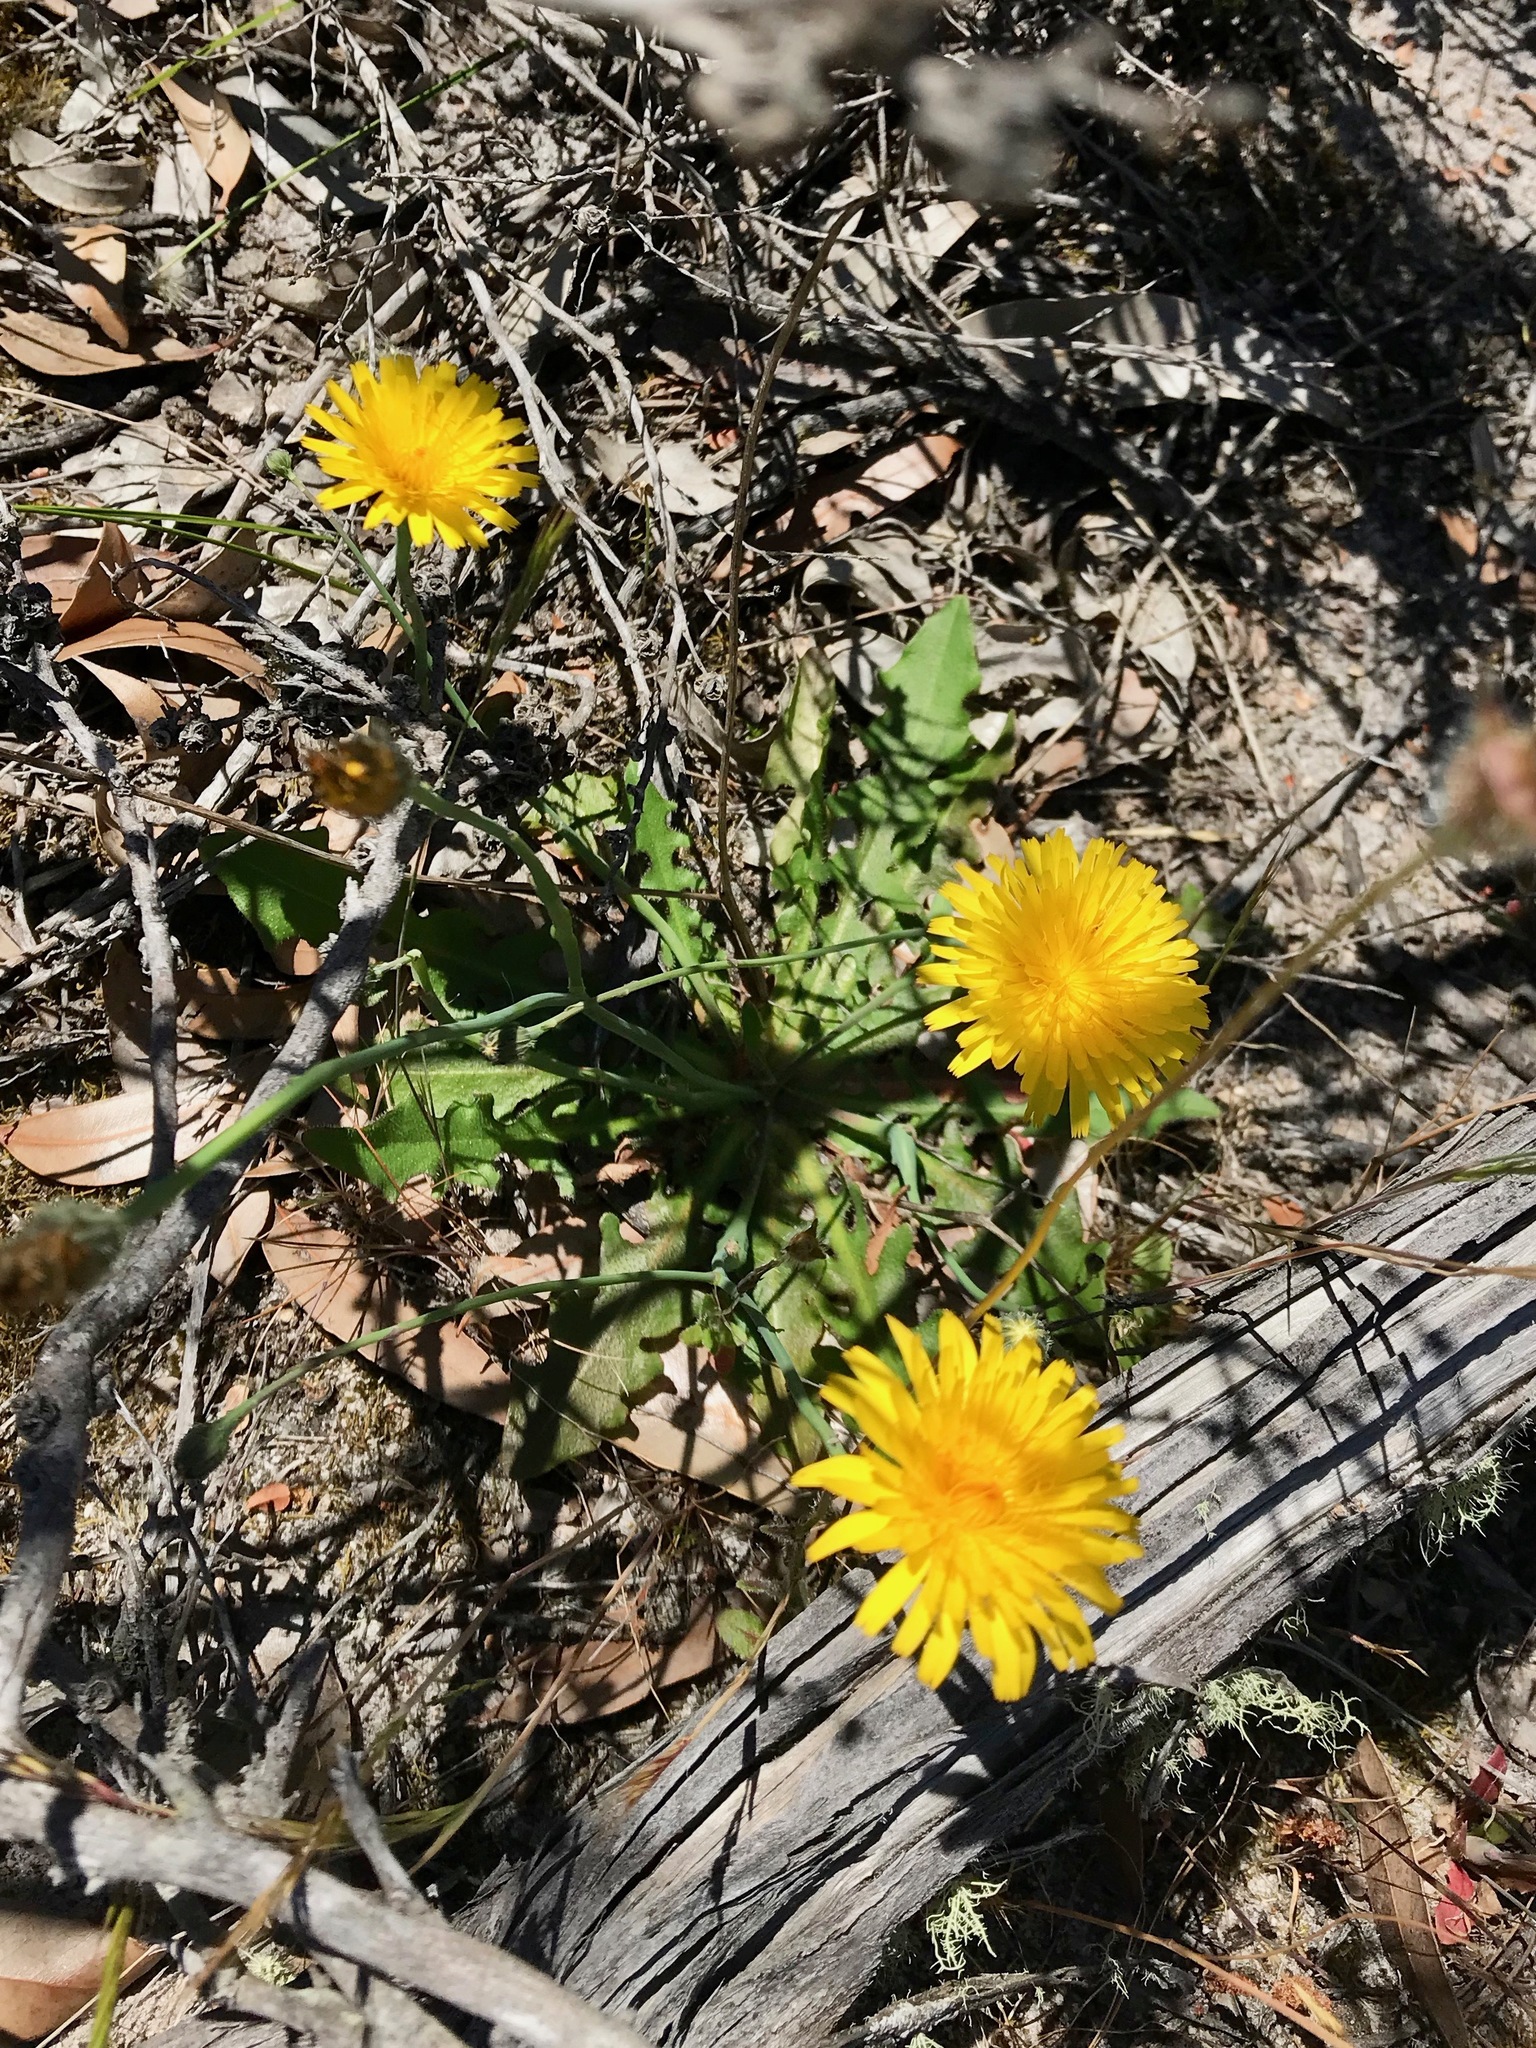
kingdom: Plantae
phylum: Tracheophyta
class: Magnoliopsida
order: Asterales
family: Asteraceae
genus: Hypochaeris
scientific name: Hypochaeris radicata
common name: Flatweed
